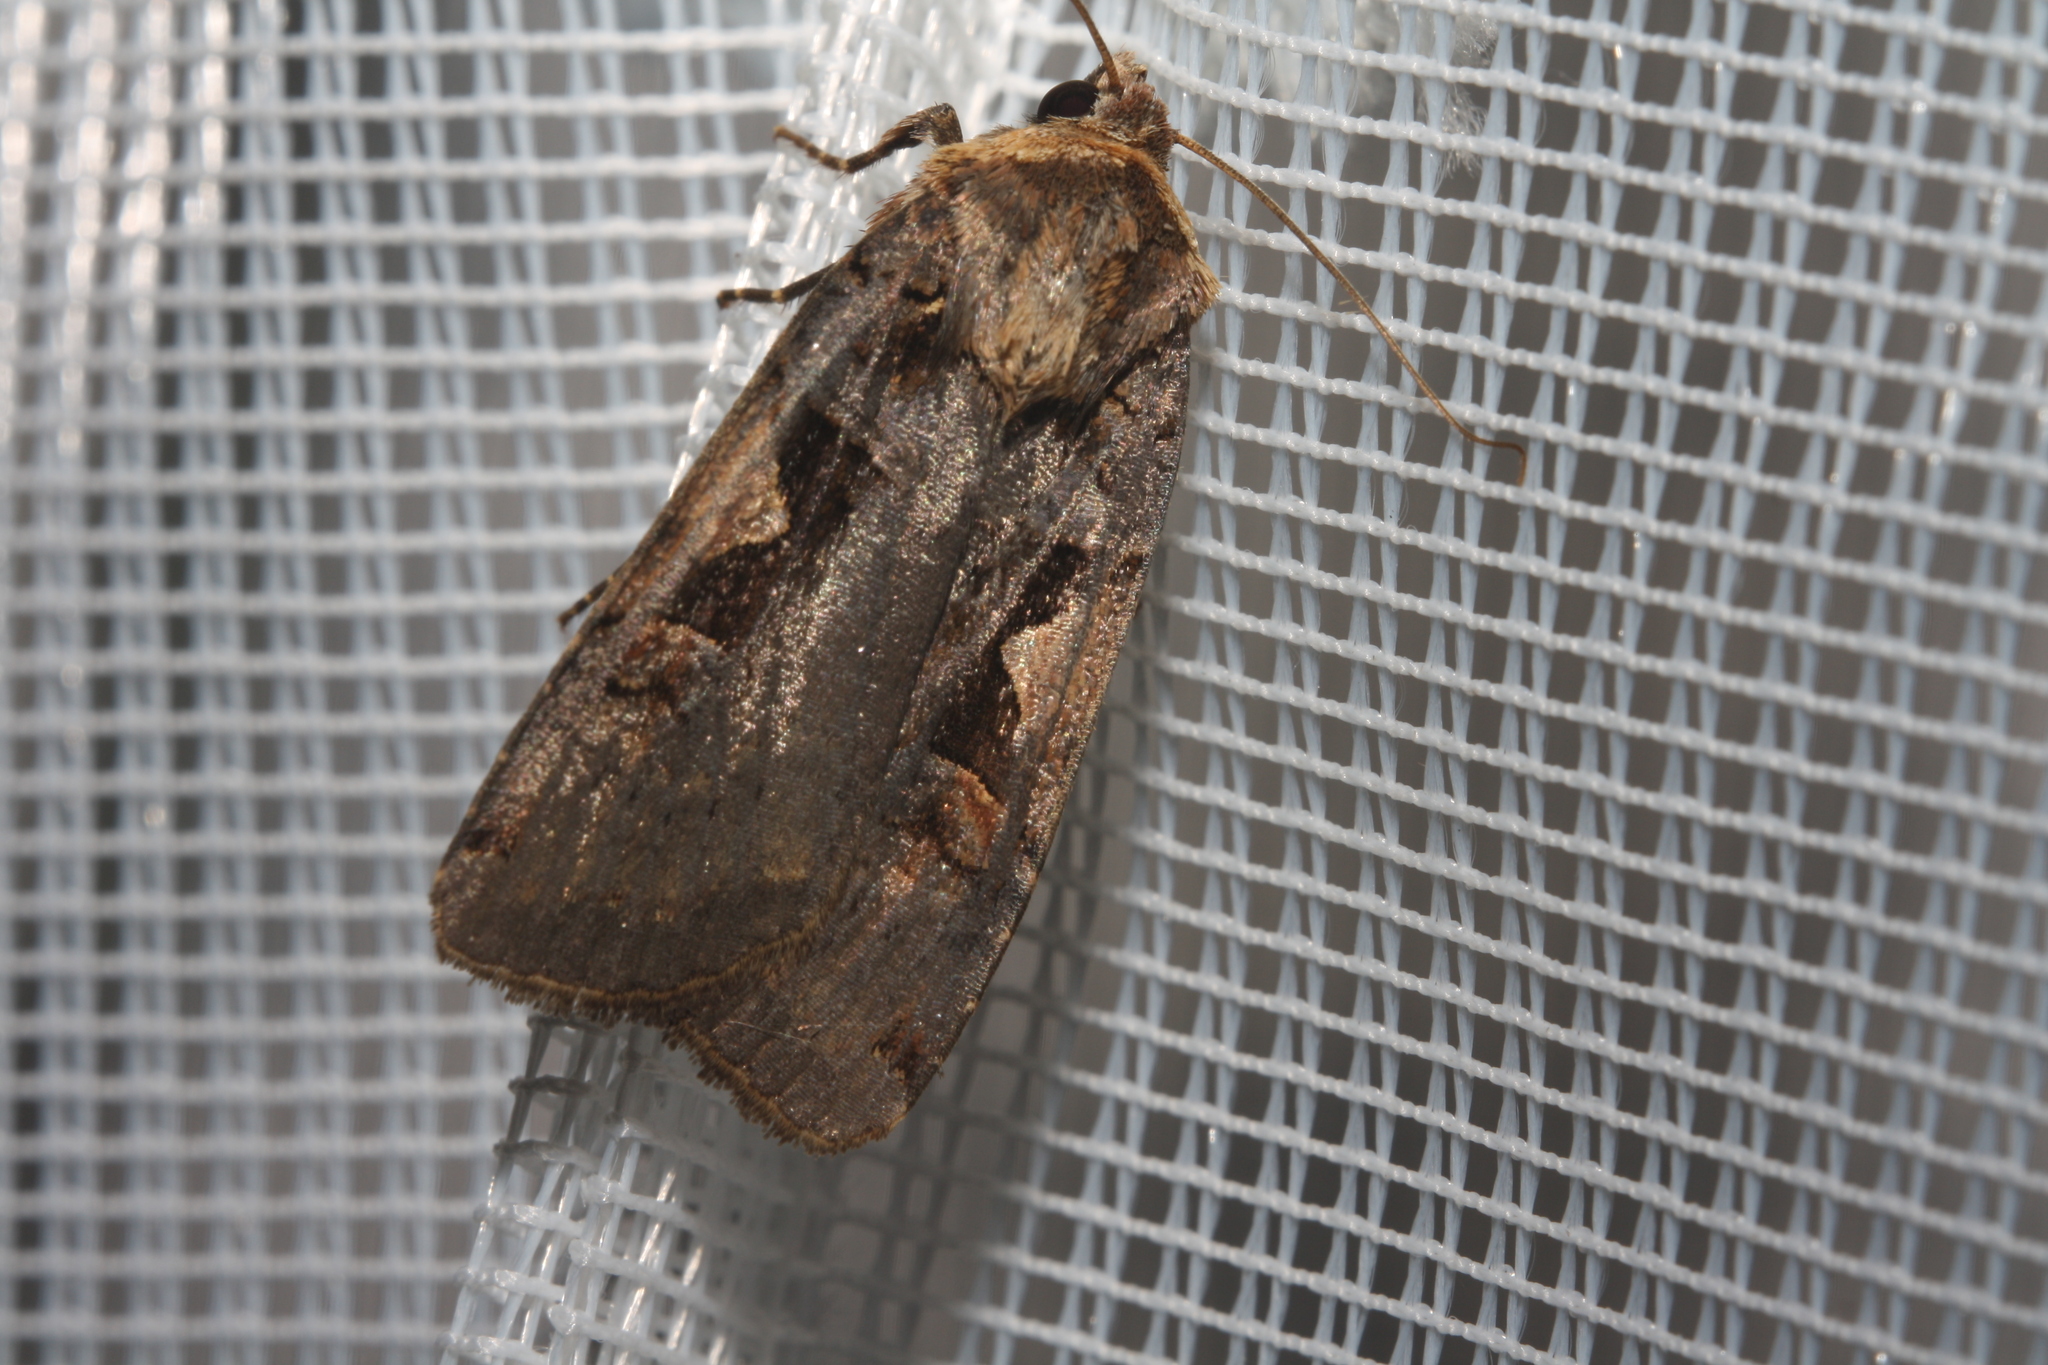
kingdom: Animalia
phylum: Arthropoda
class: Insecta
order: Lepidoptera
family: Noctuidae
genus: Xestia
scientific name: Xestia c-nigrum
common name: Setaceous hebrew character
